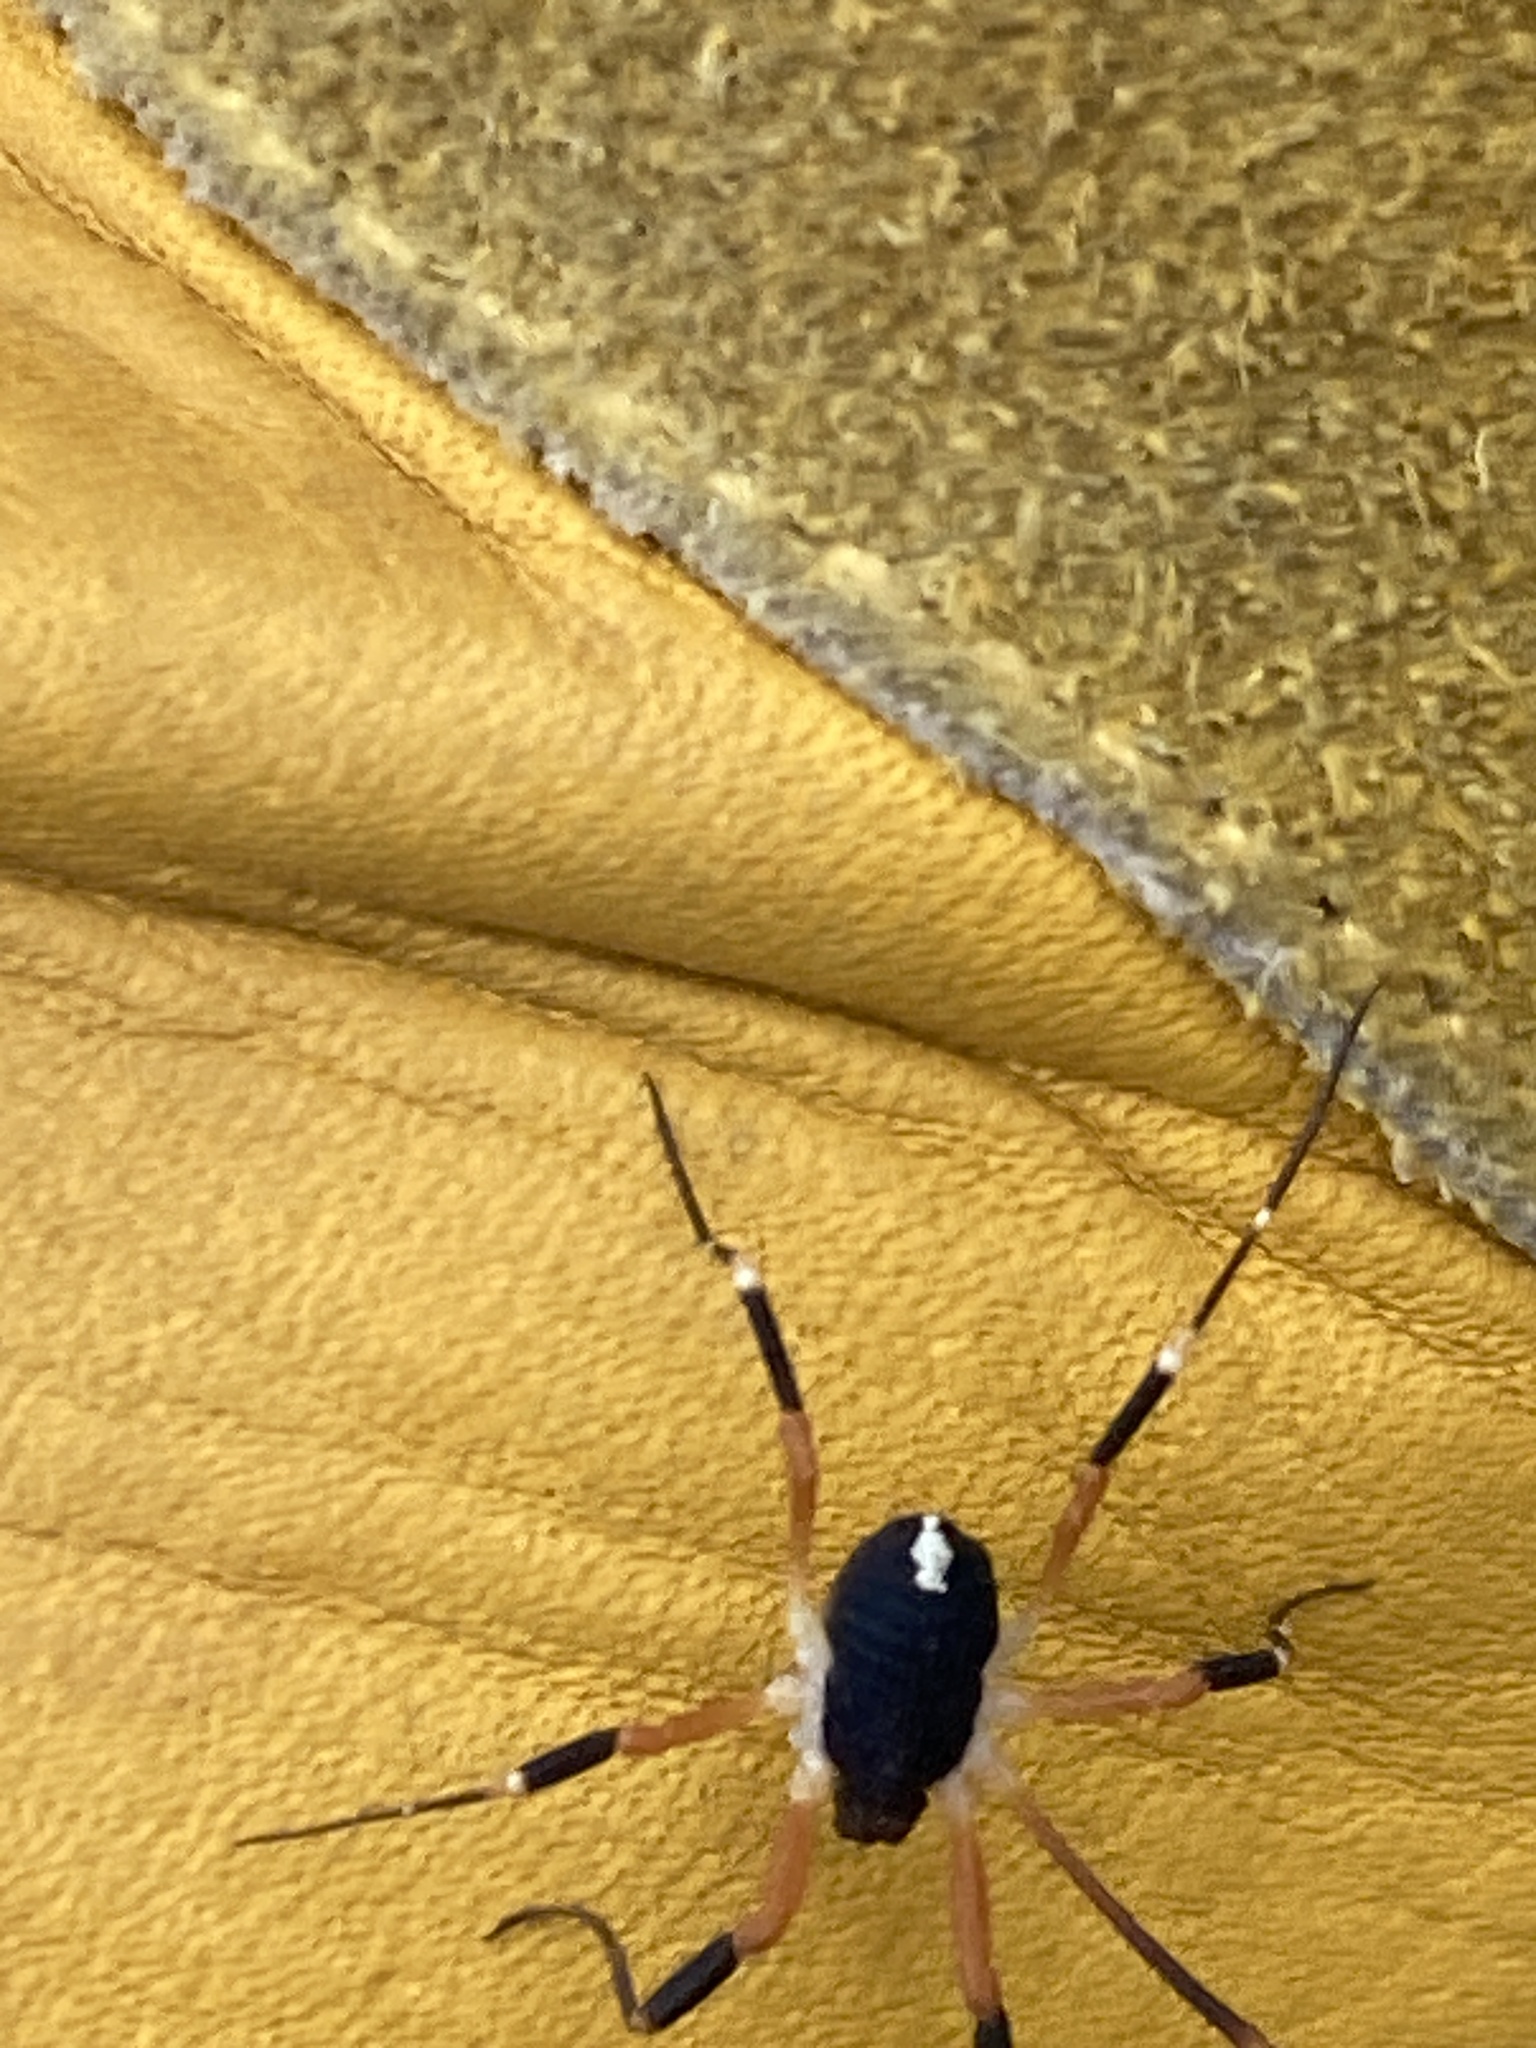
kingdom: Animalia
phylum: Arthropoda
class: Arachnida
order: Opiliones
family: Globipedidae
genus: Dalquestia
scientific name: Dalquestia formosa
